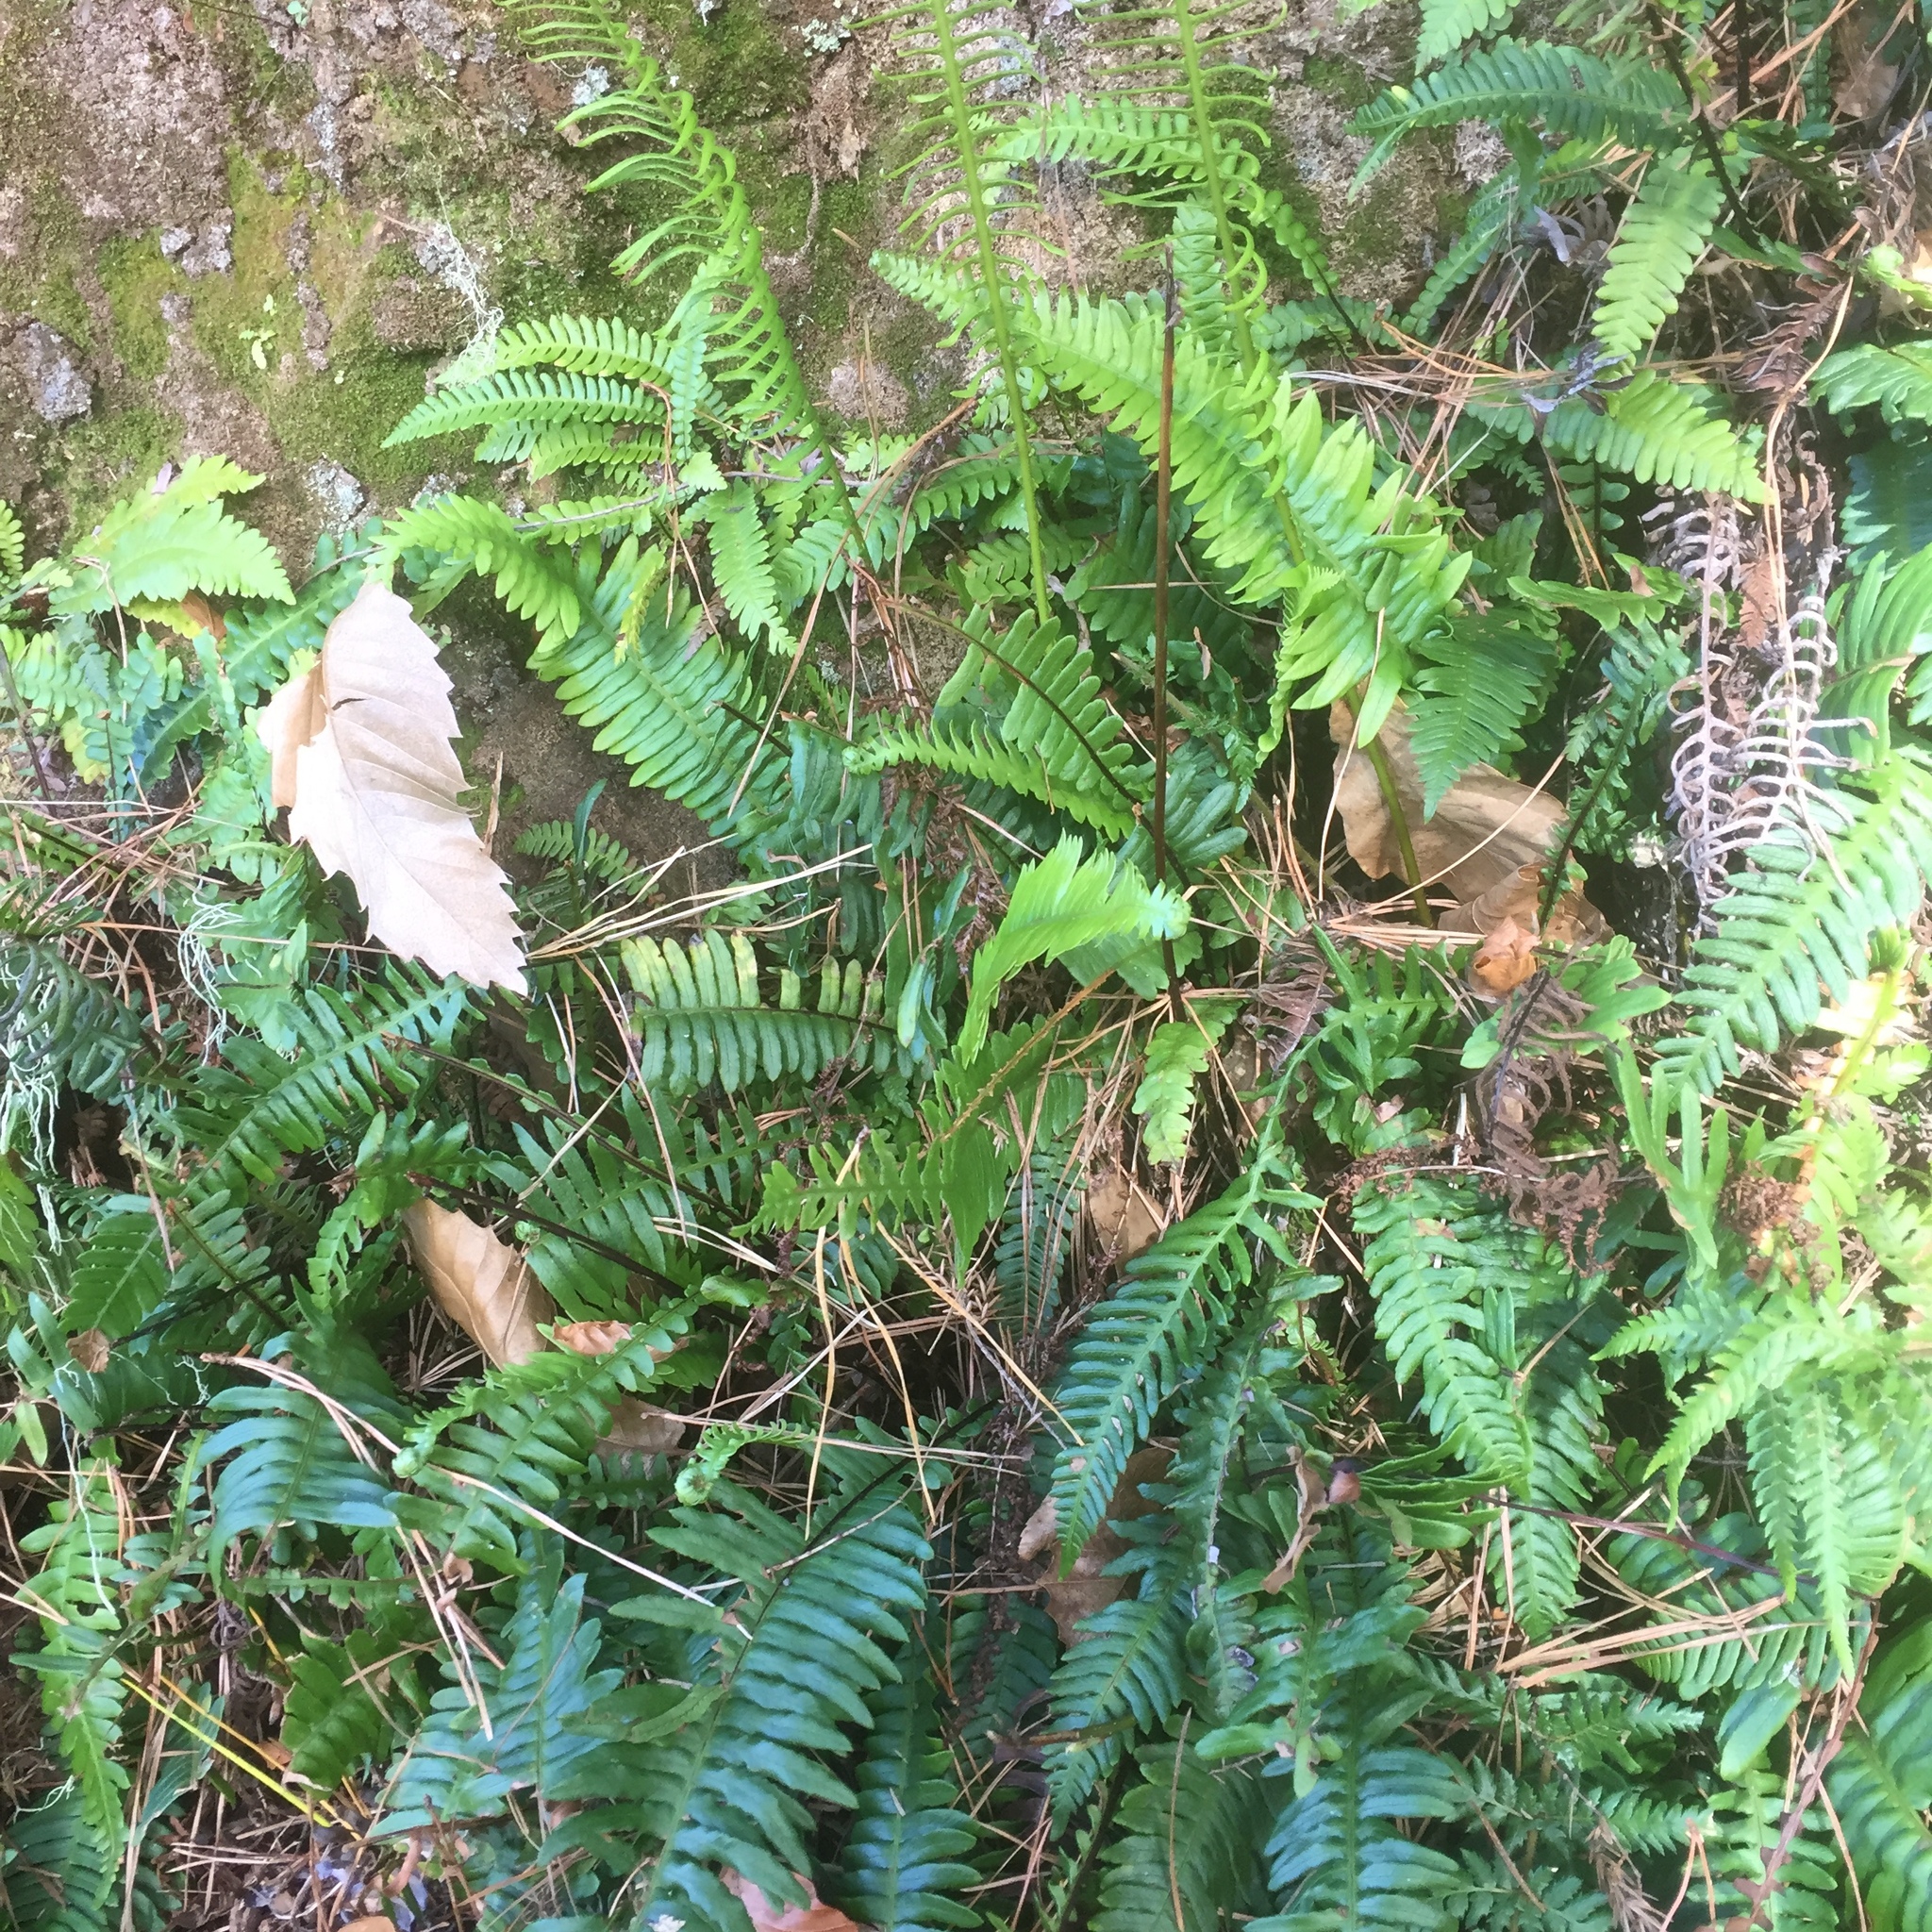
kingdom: Plantae
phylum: Tracheophyta
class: Polypodiopsida
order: Polypodiales
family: Blechnaceae
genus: Struthiopteris
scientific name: Struthiopteris spicant
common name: Deer fern
